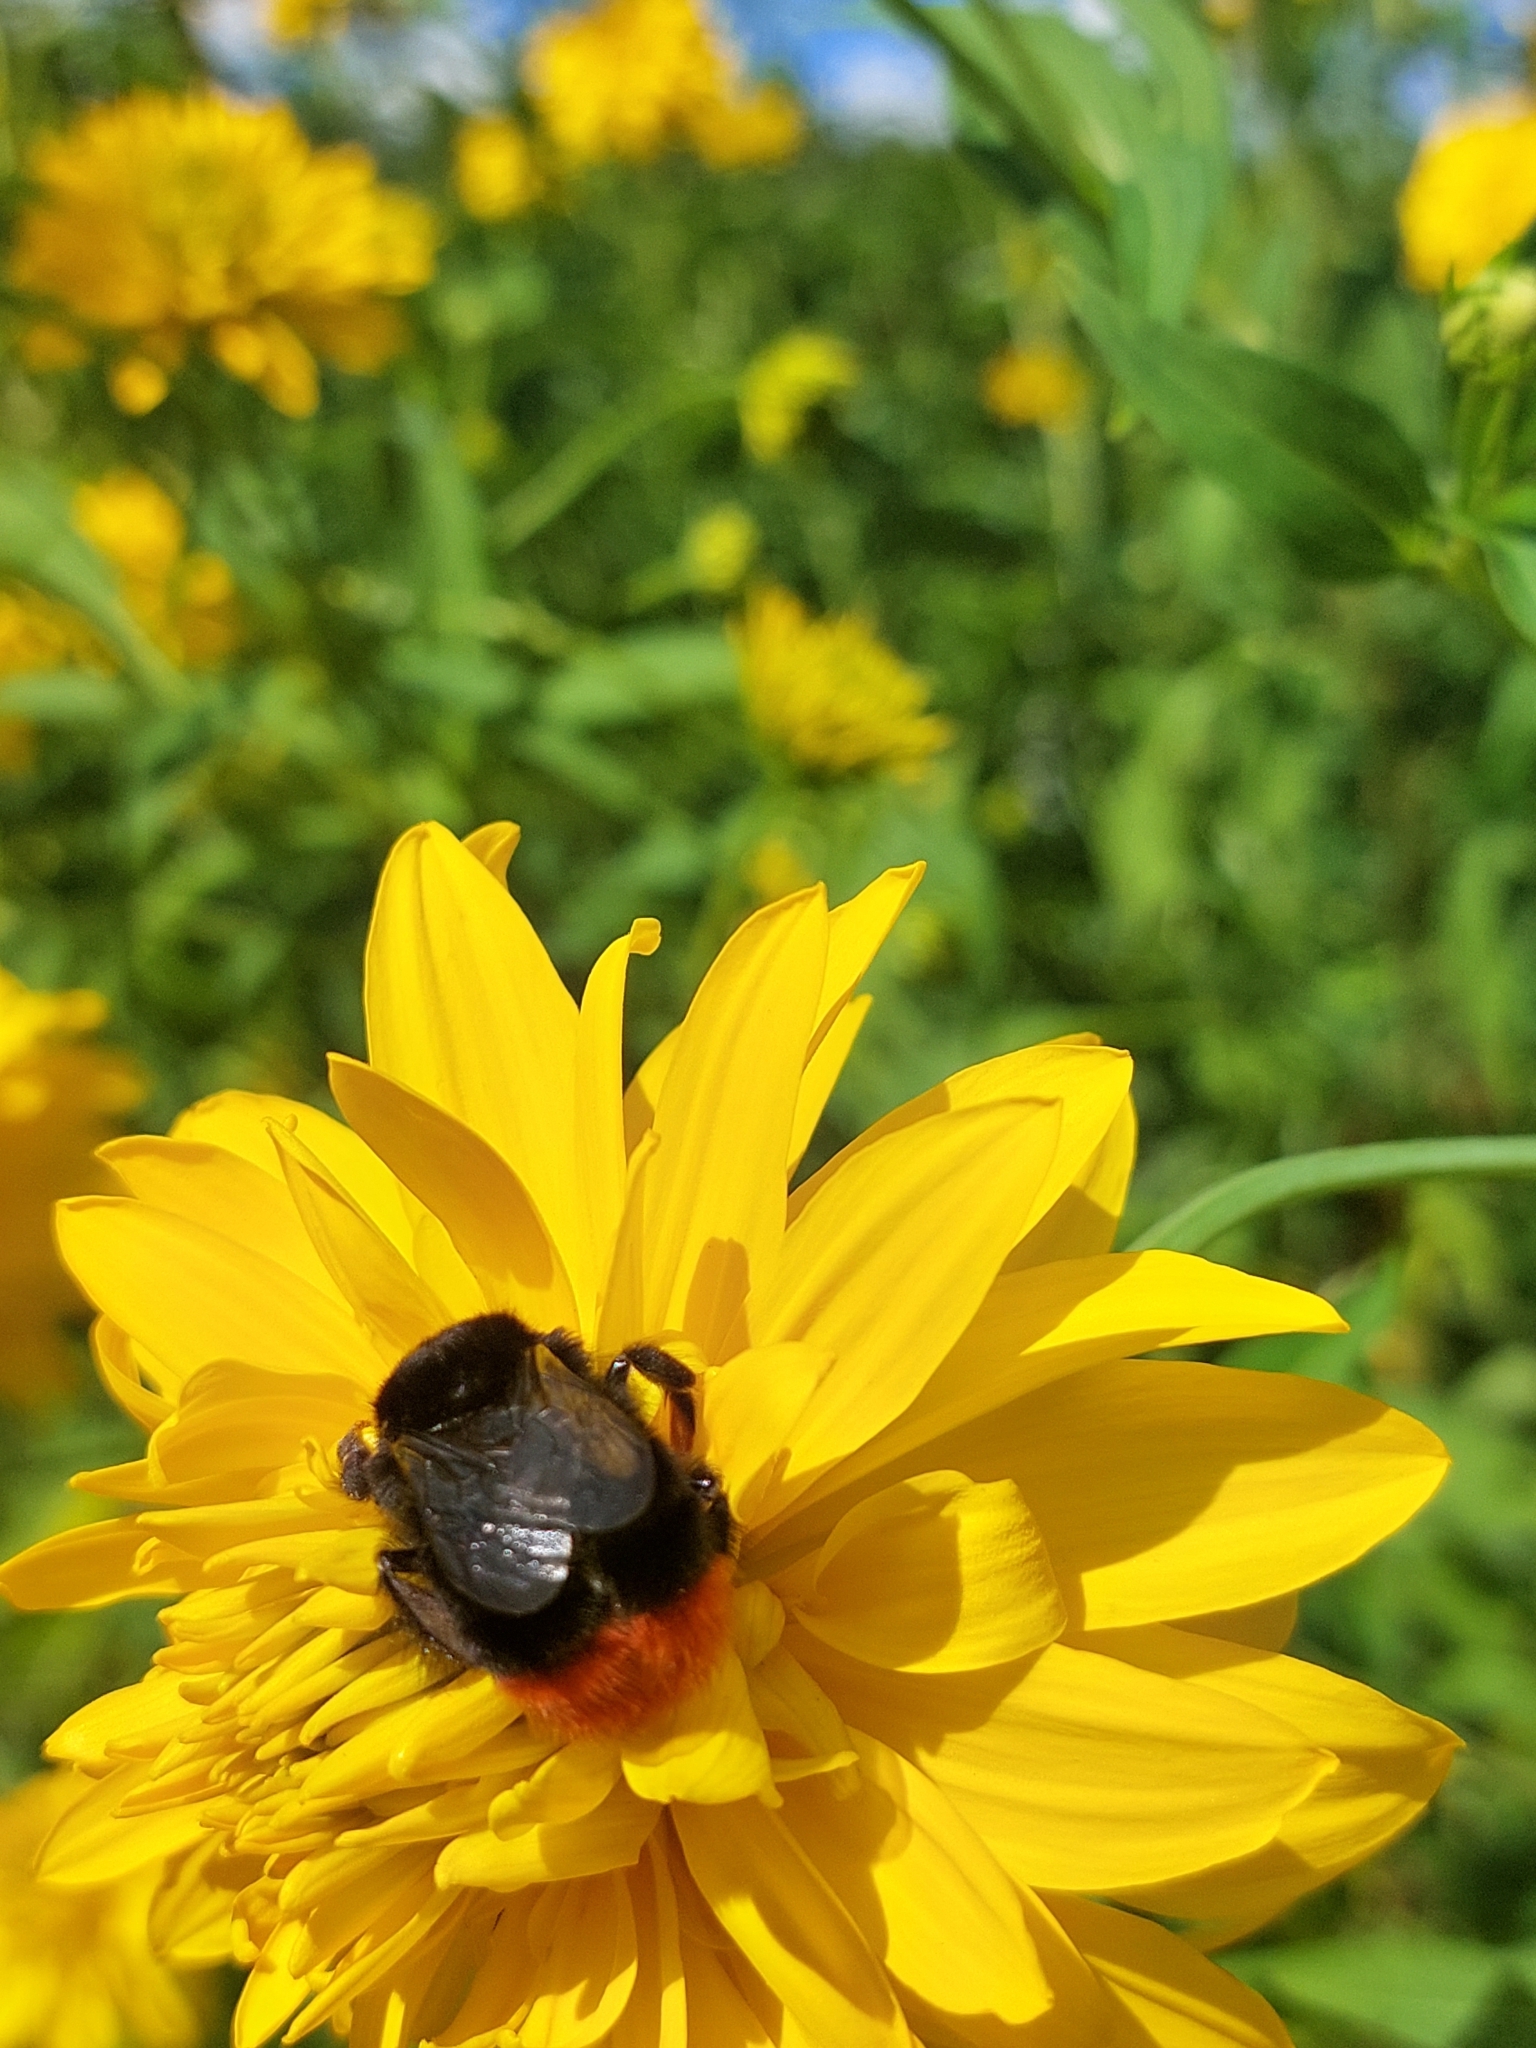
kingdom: Animalia
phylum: Arthropoda
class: Insecta
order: Hymenoptera
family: Apidae
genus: Bombus
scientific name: Bombus lapidarius
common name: Large red-tailed humble-bee
